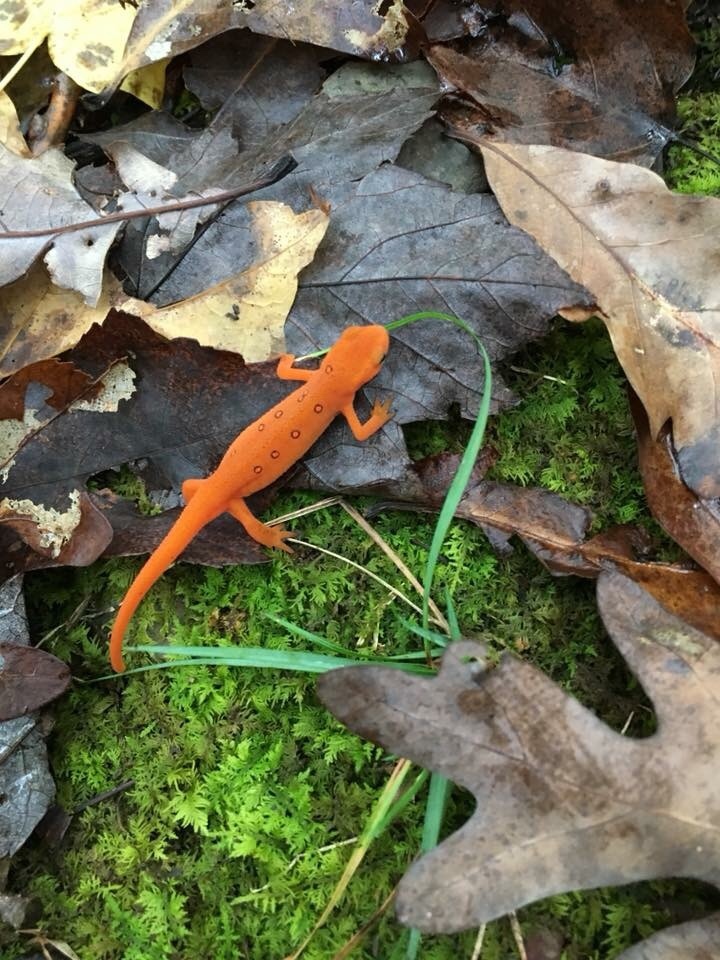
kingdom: Animalia
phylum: Chordata
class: Amphibia
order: Caudata
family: Salamandridae
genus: Notophthalmus
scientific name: Notophthalmus viridescens
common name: Eastern newt
